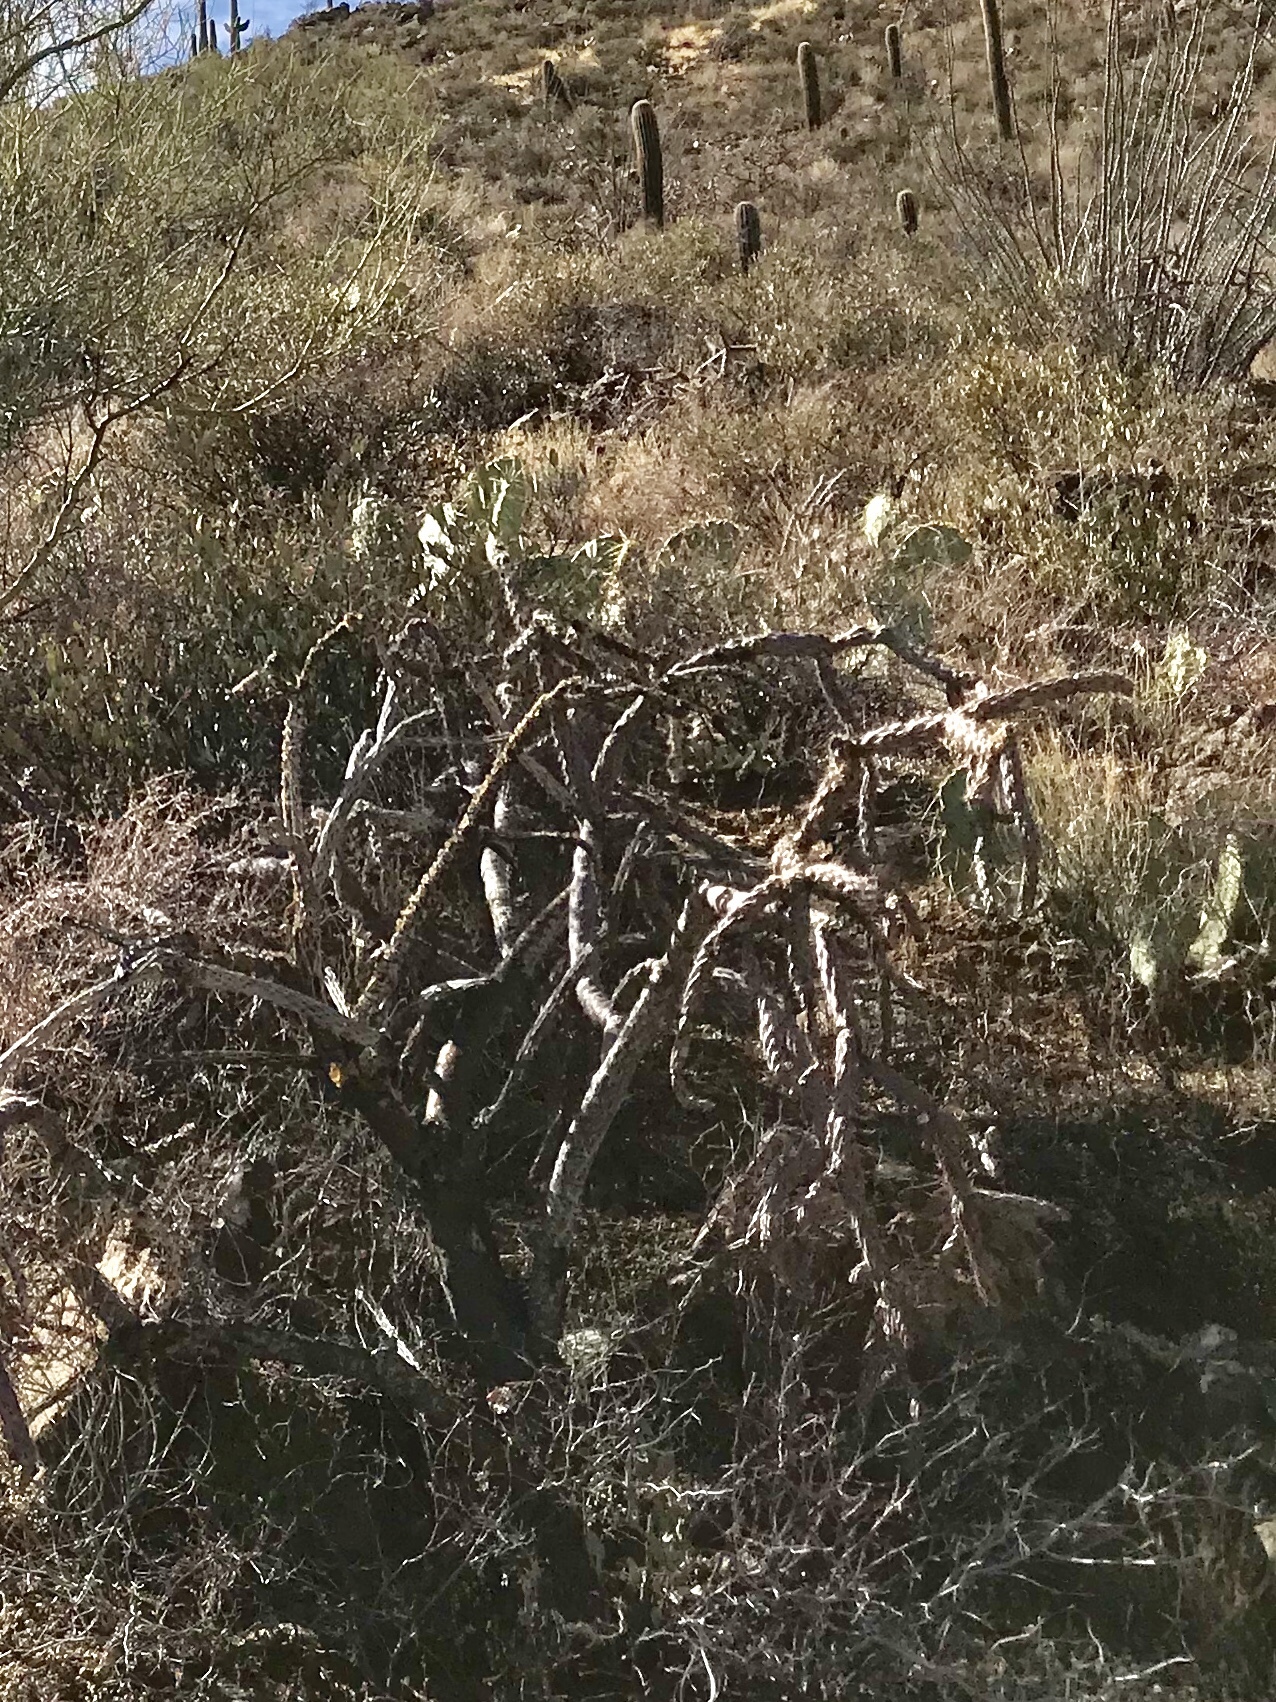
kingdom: Plantae
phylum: Tracheophyta
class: Magnoliopsida
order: Caryophyllales
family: Cactaceae
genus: Cylindropuntia
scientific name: Cylindropuntia thurberi
